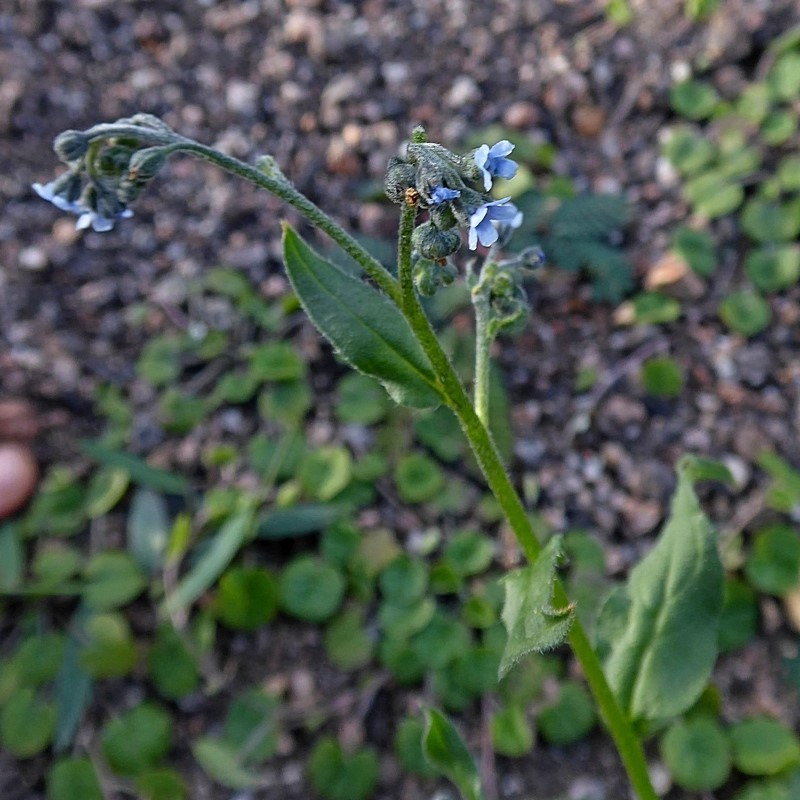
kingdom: Plantae
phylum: Tracheophyta
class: Magnoliopsida
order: Boraginales
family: Boraginaceae
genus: Cynoglossum
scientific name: Cynoglossum australe
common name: Australian hound's-tongue
